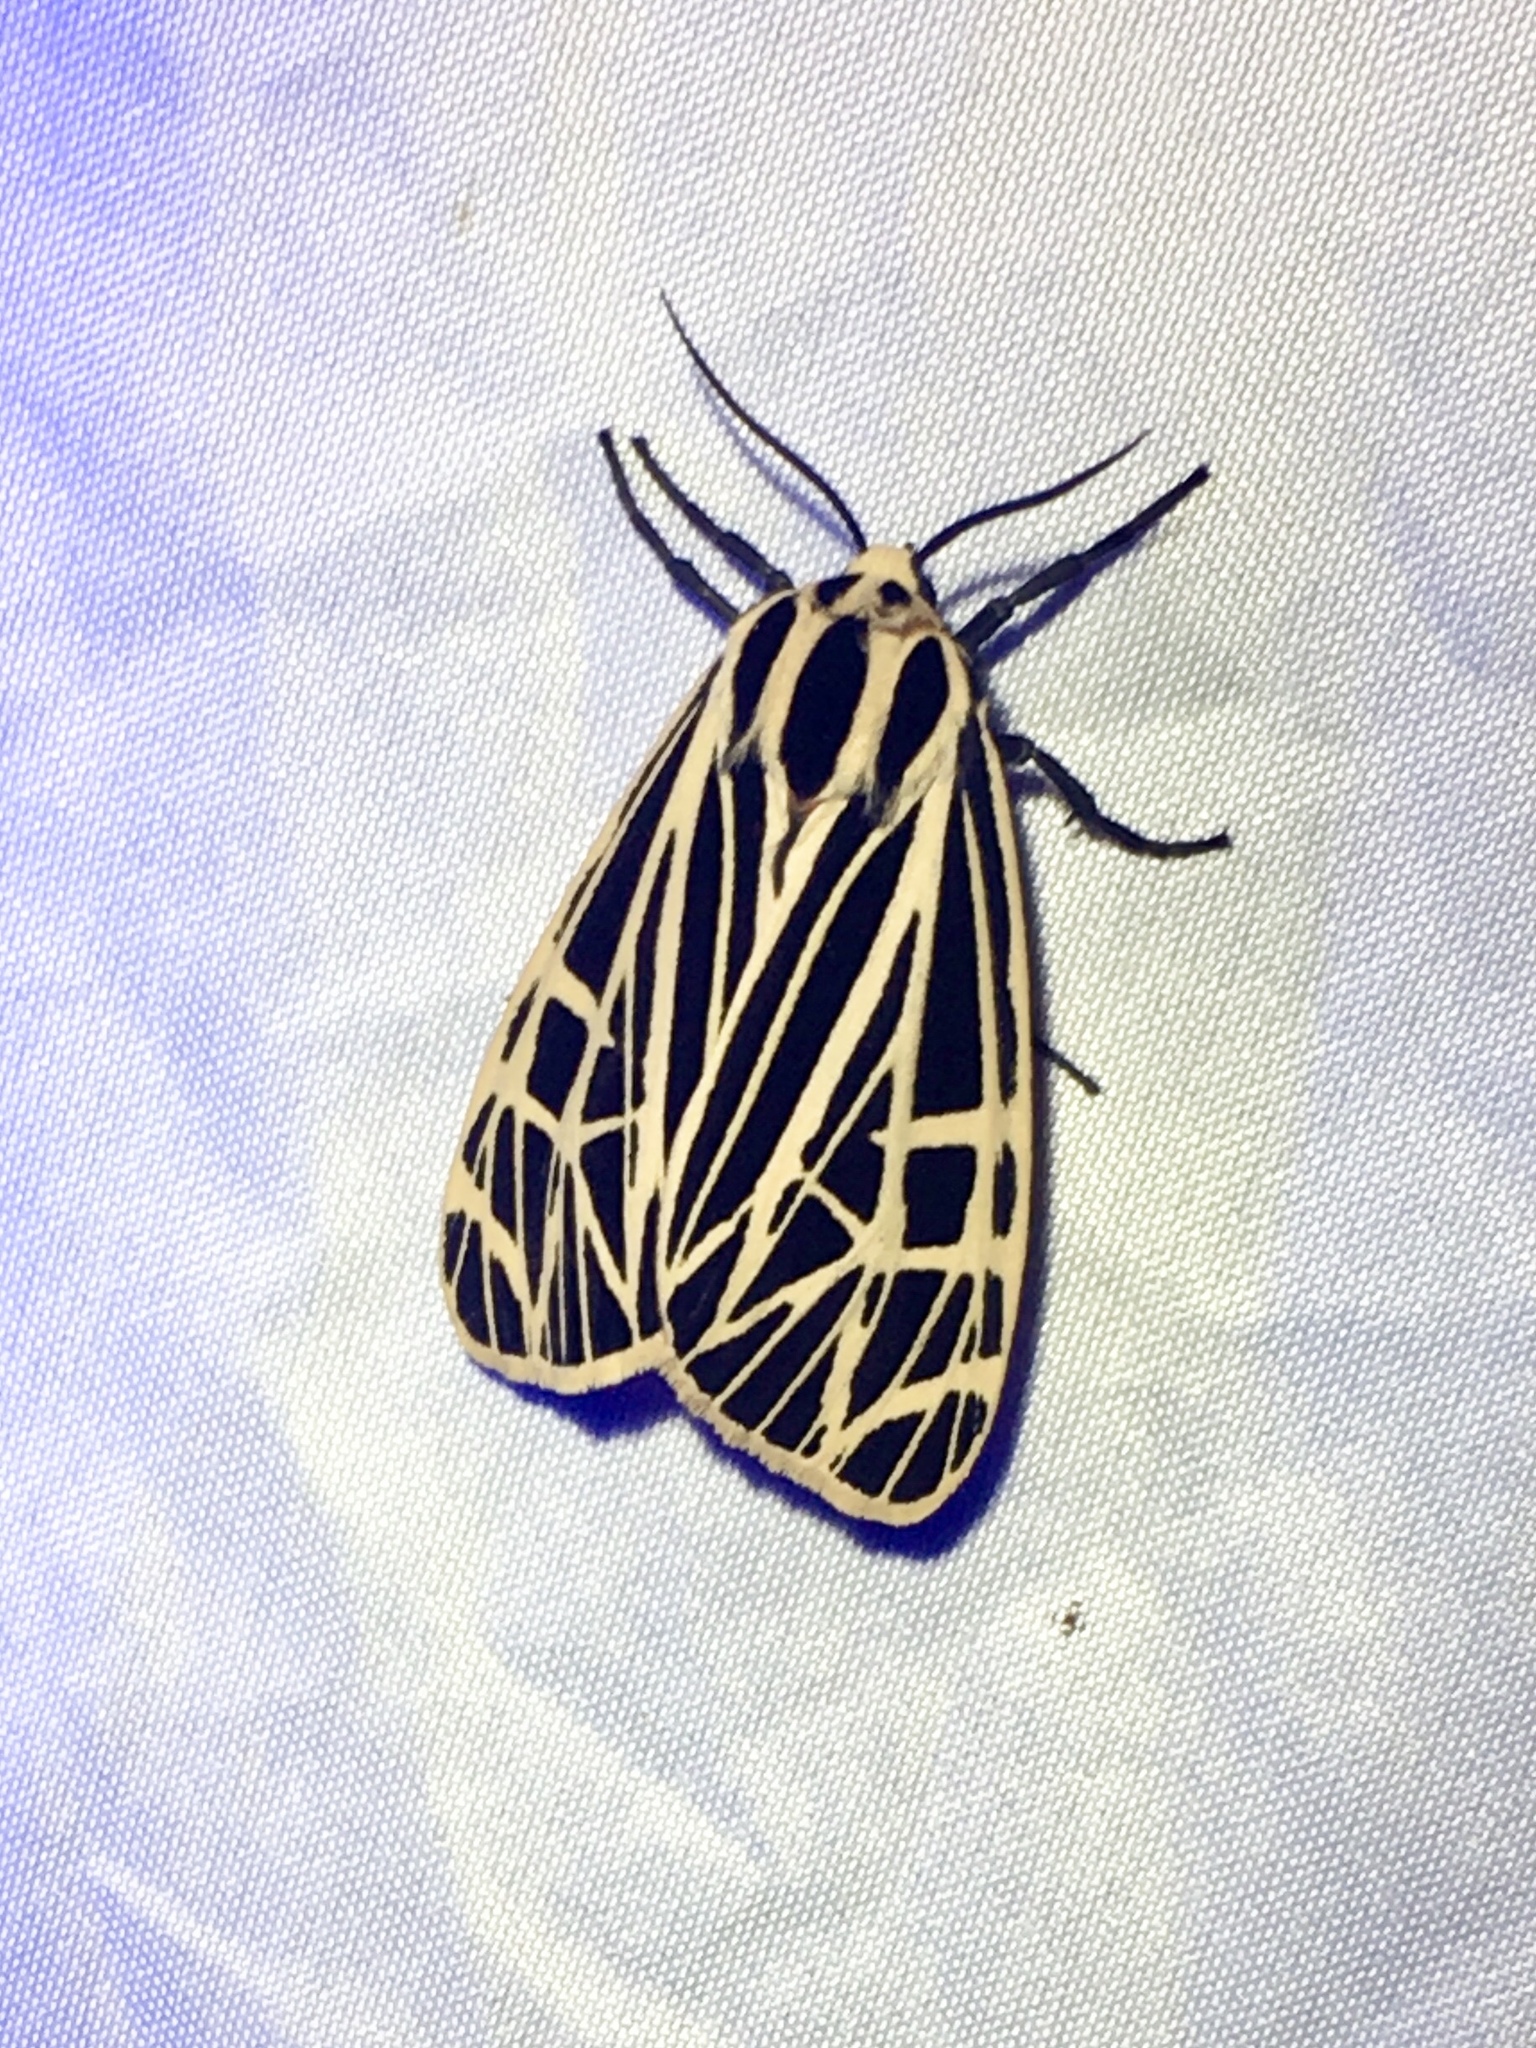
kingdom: Animalia
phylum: Arthropoda
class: Insecta
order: Lepidoptera
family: Erebidae
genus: Grammia
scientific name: Grammia virgo
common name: Virgin tiger moth
